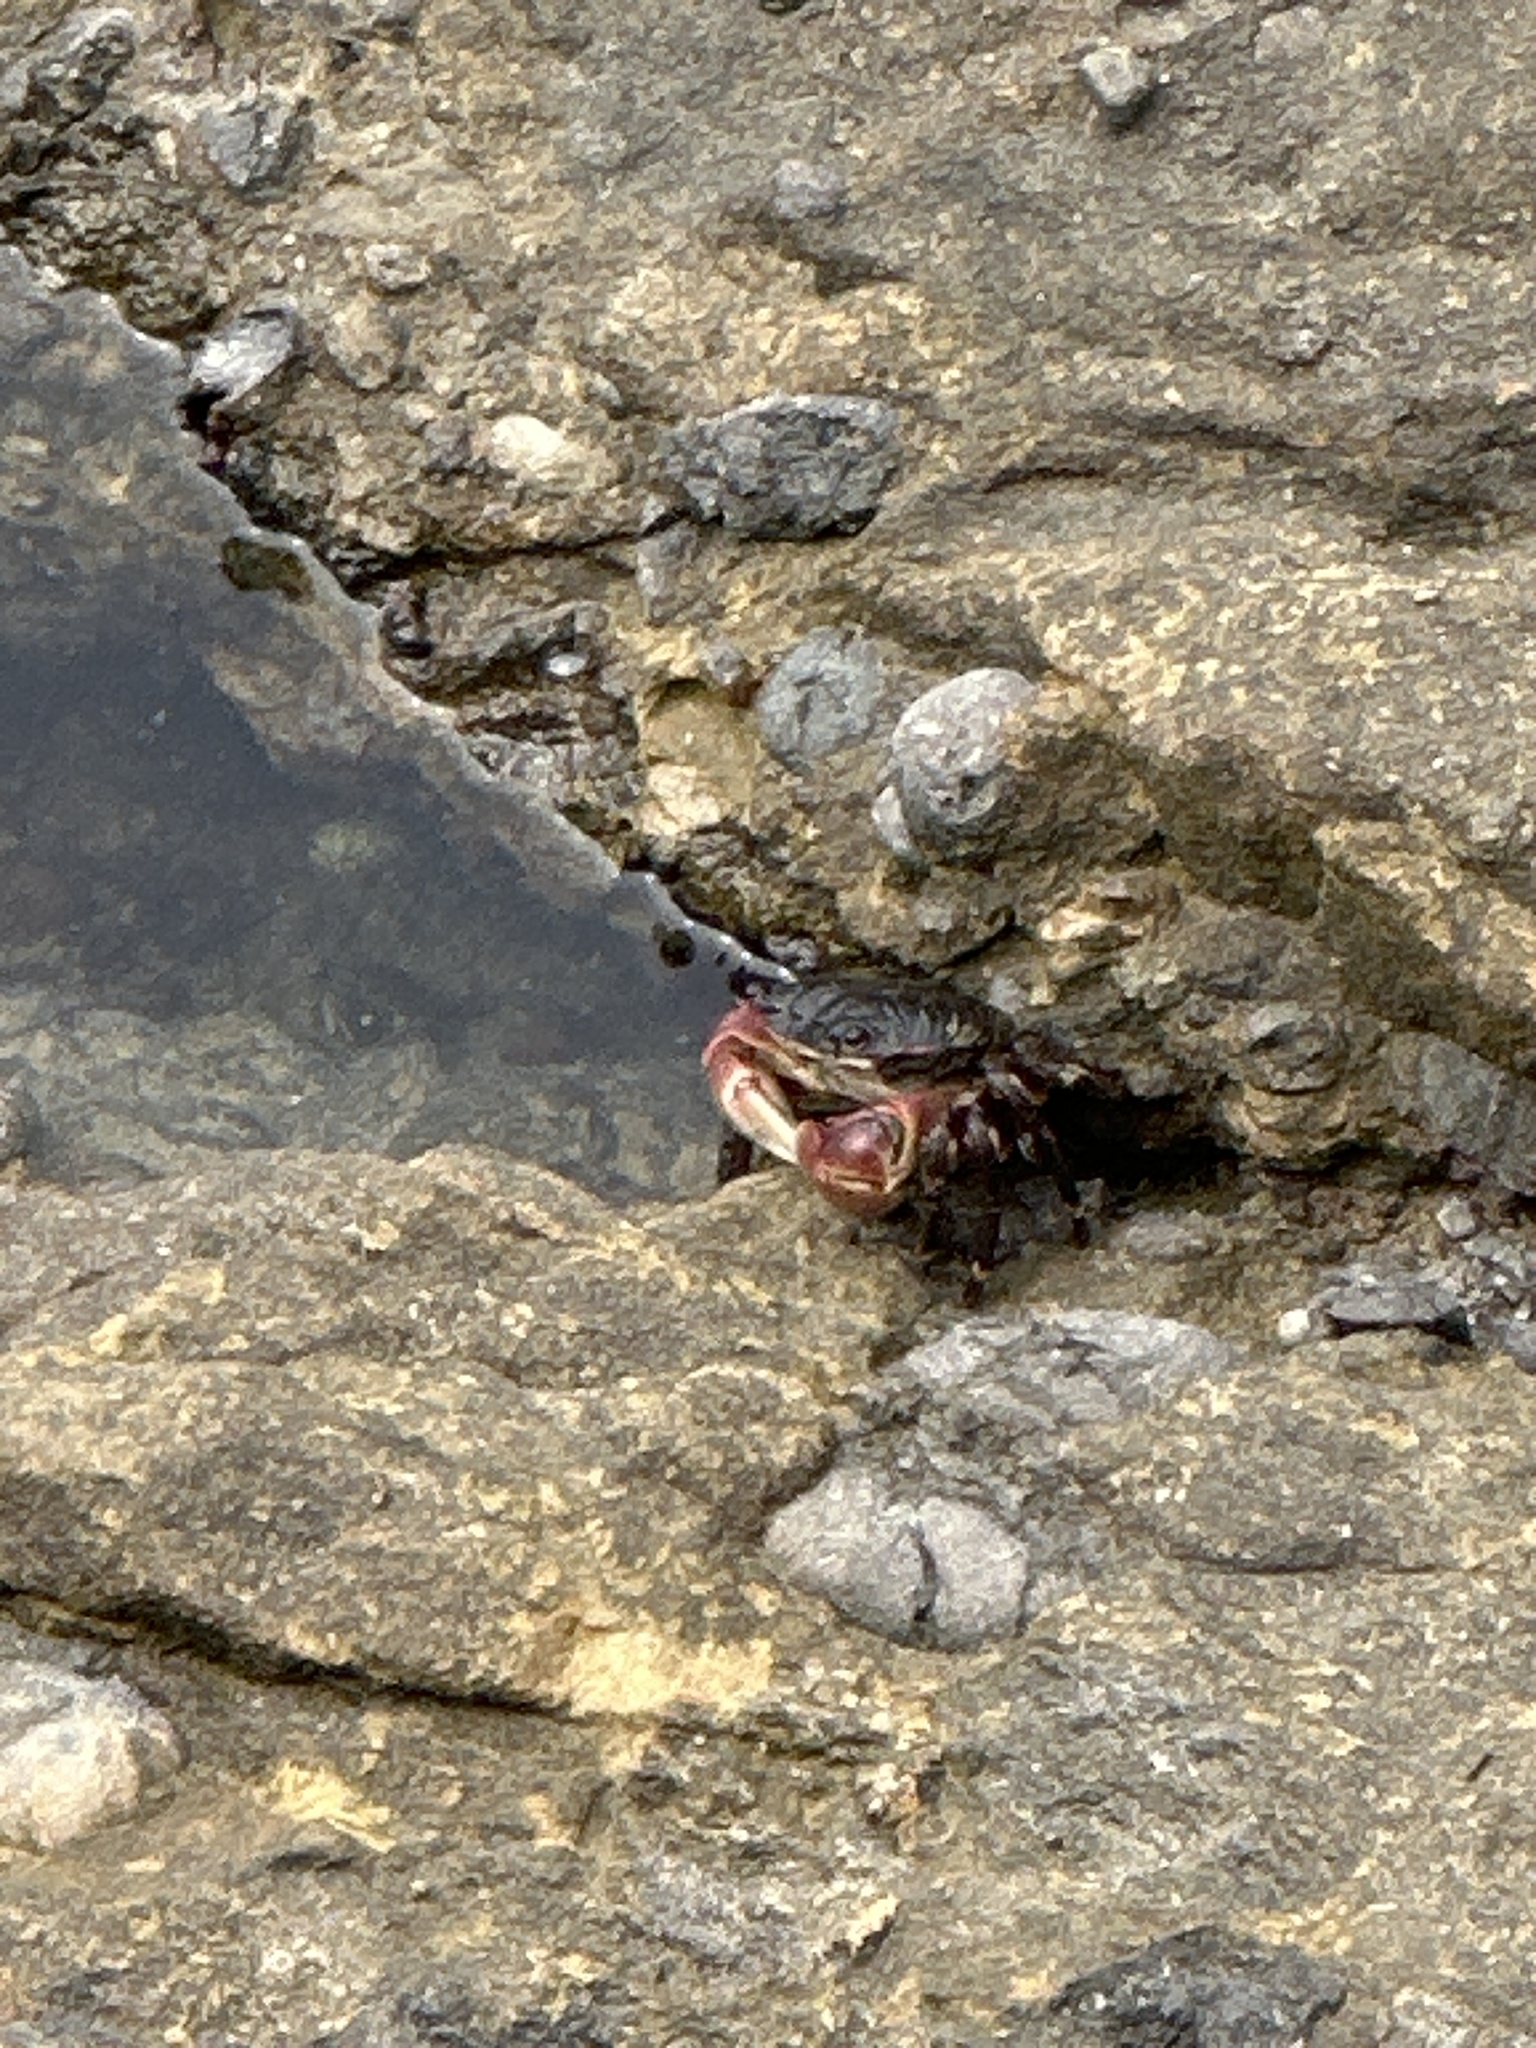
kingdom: Animalia
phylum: Arthropoda
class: Malacostraca
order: Decapoda
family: Grapsidae
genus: Pachygrapsus
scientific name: Pachygrapsus crassipes
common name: Striped shore crab
